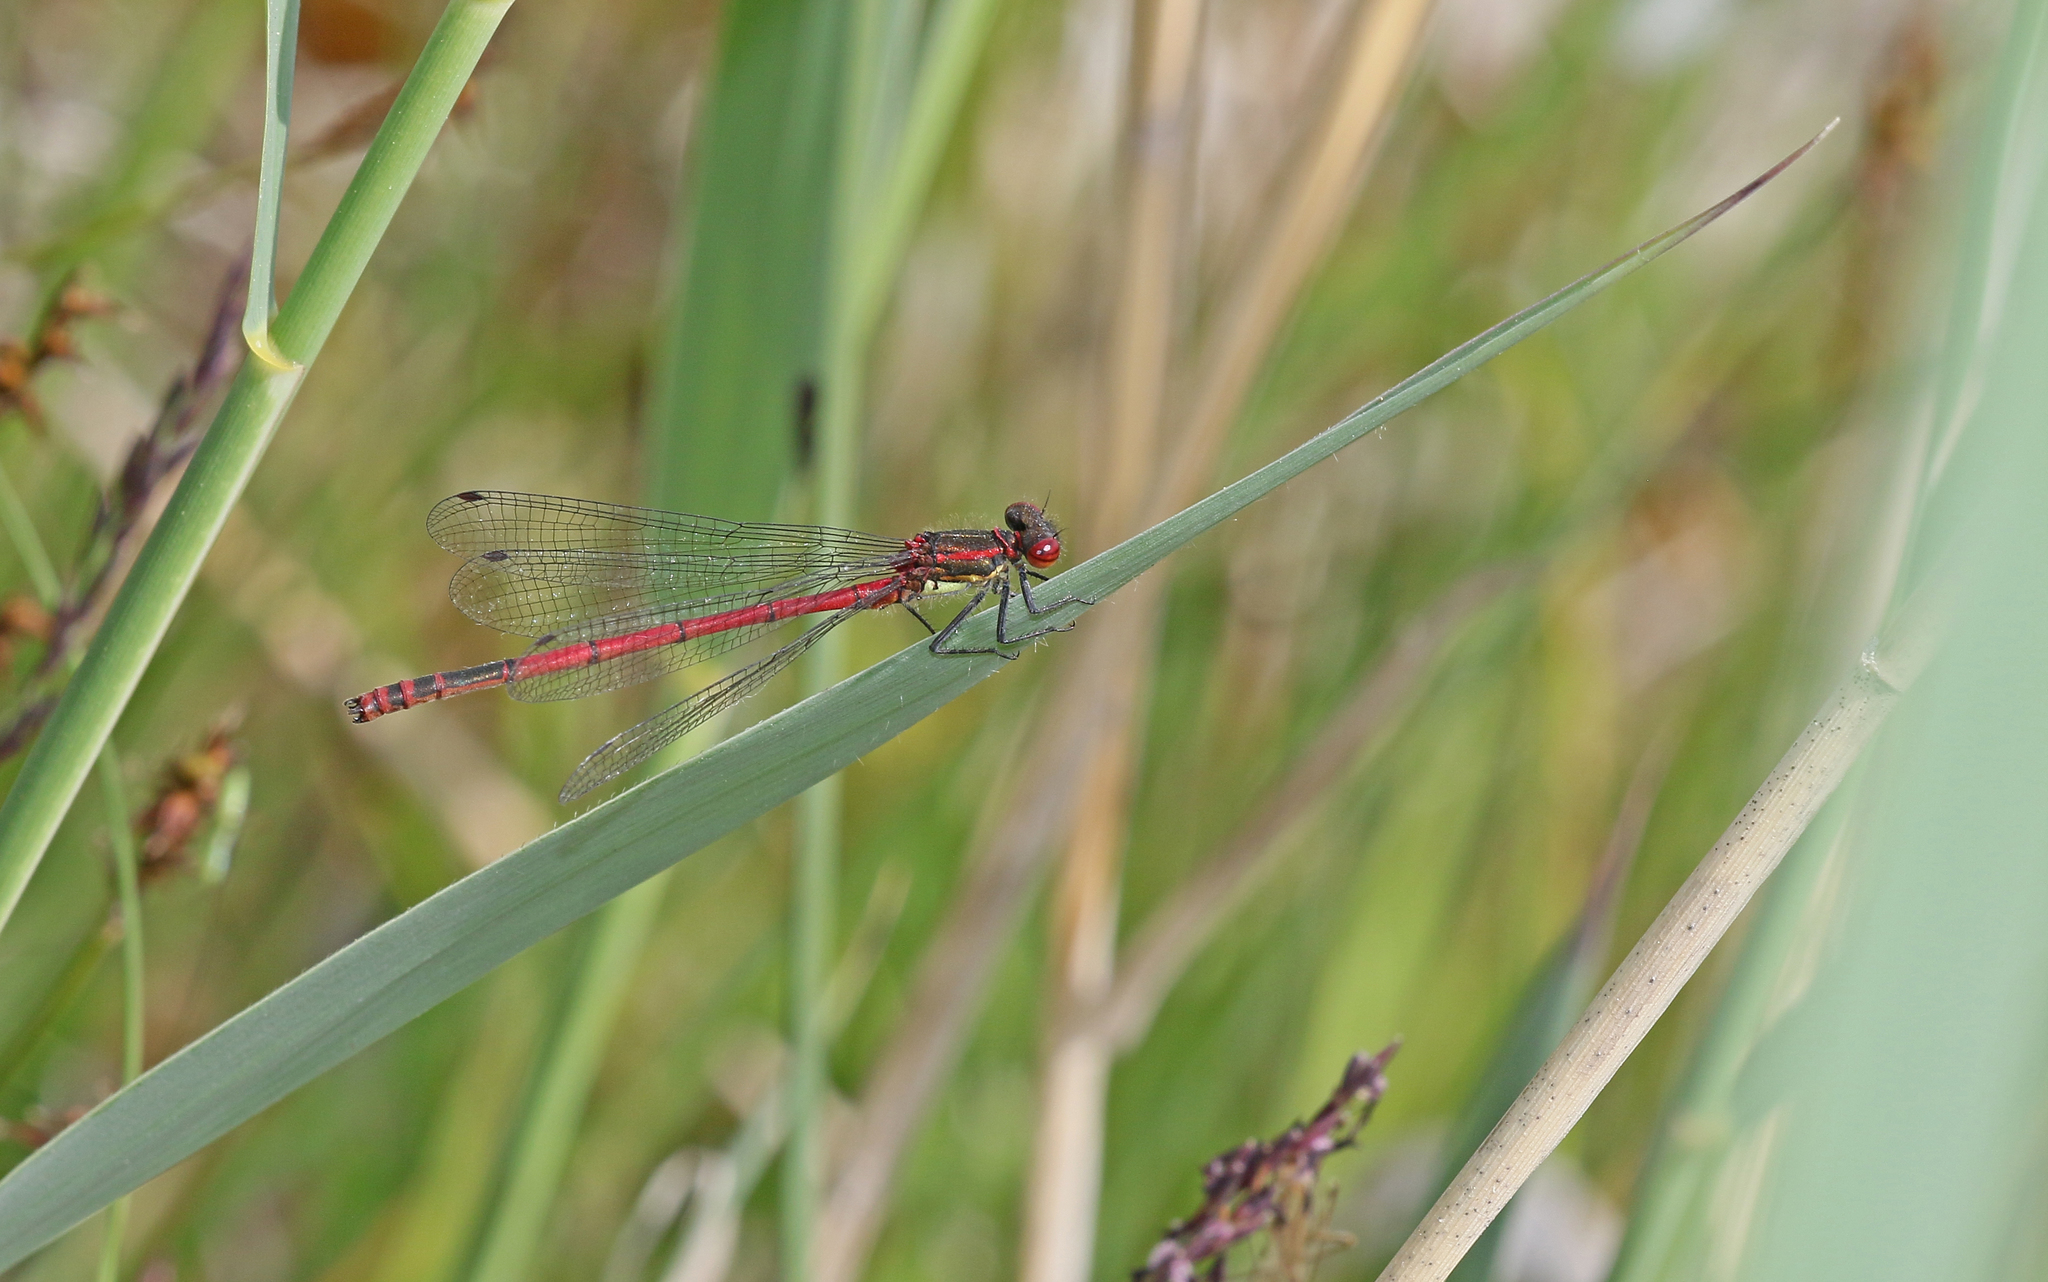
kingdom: Animalia
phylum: Arthropoda
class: Insecta
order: Odonata
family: Coenagrionidae
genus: Pyrrhosoma
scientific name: Pyrrhosoma nymphula
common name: Large red damsel
